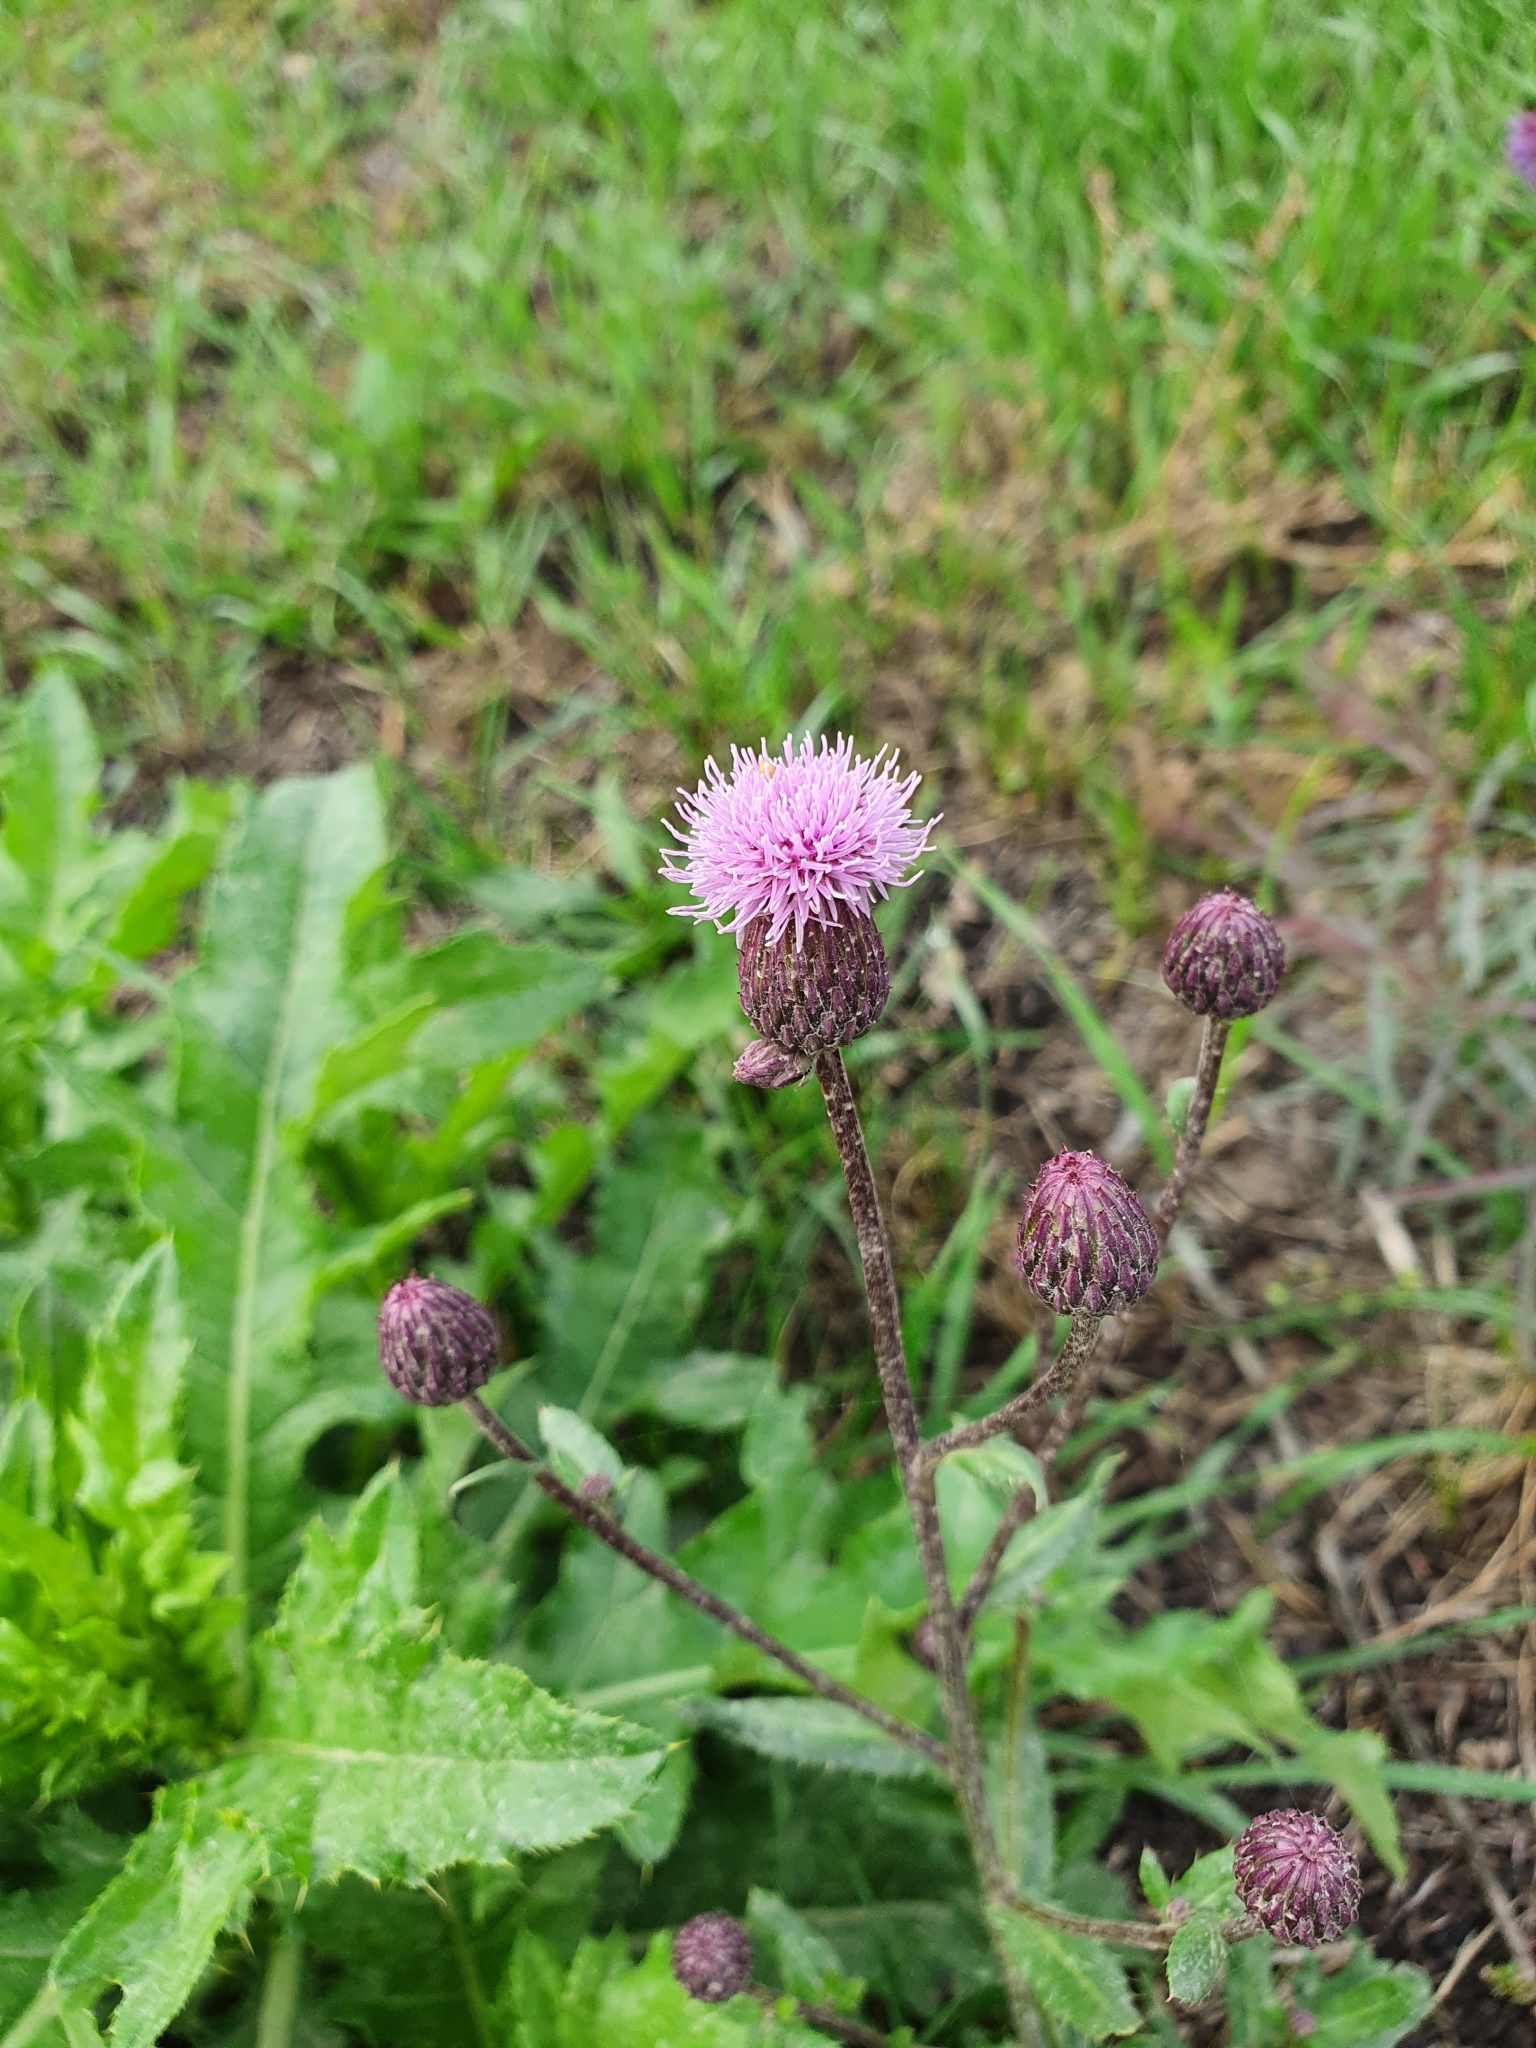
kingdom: Plantae
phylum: Tracheophyta
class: Magnoliopsida
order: Asterales
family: Asteraceae
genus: Cirsium
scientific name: Cirsium arvense
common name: Creeping thistle
